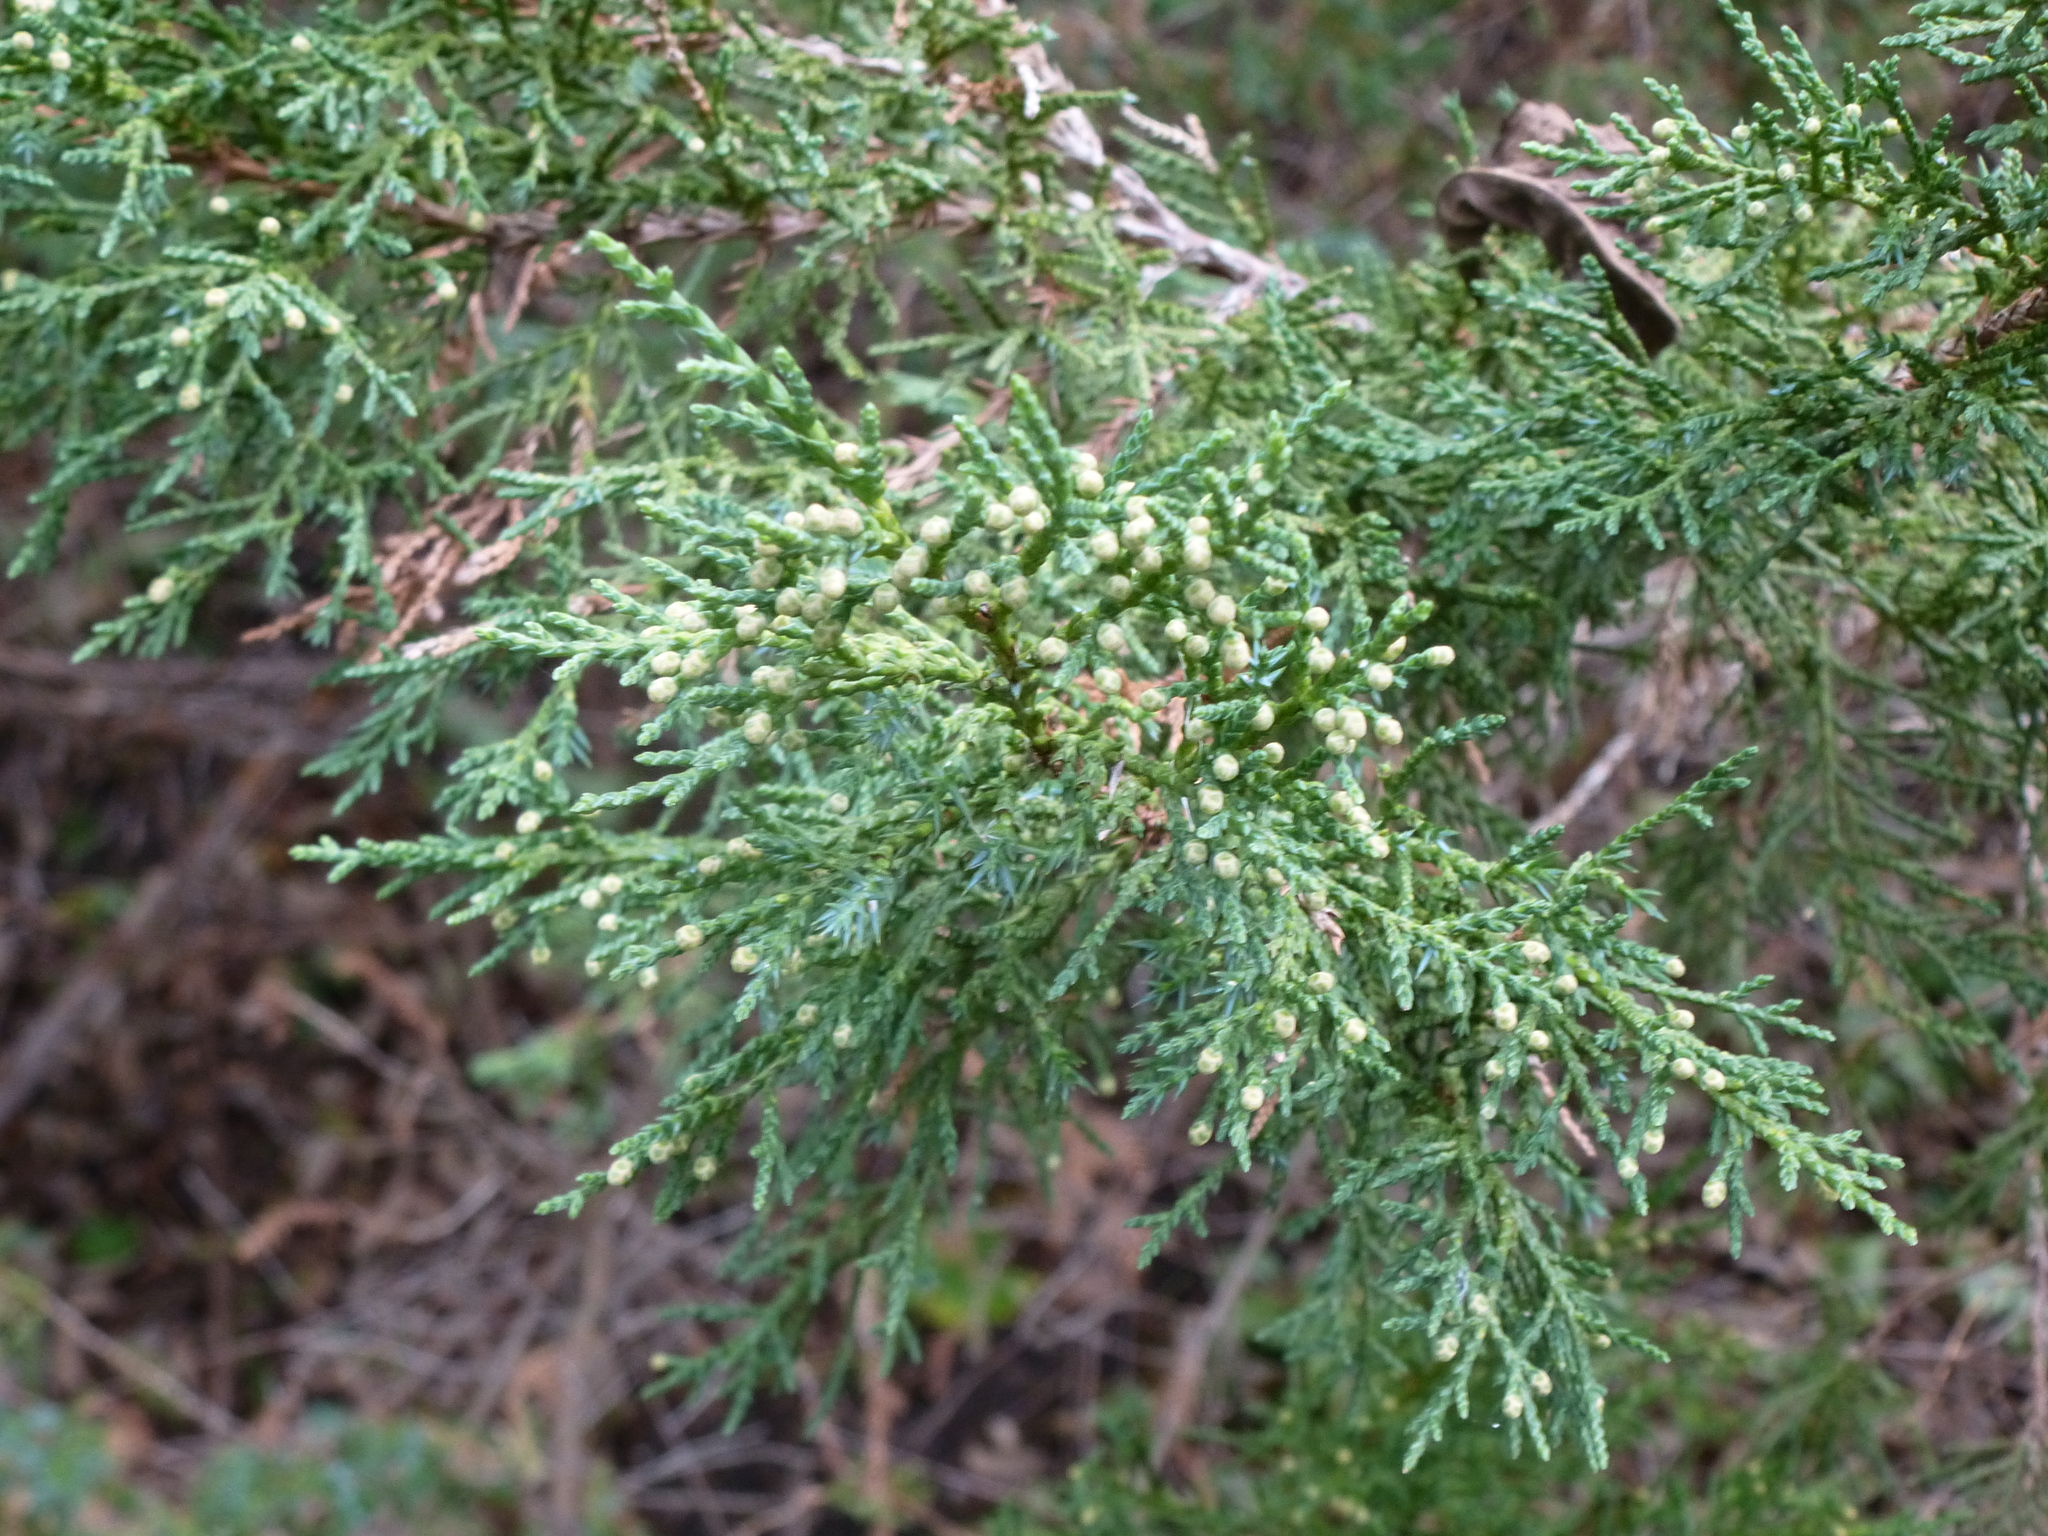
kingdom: Plantae
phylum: Tracheophyta
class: Pinopsida
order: Pinales
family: Cupressaceae
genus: Juniperus
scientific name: Juniperus virginiana
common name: Red juniper
